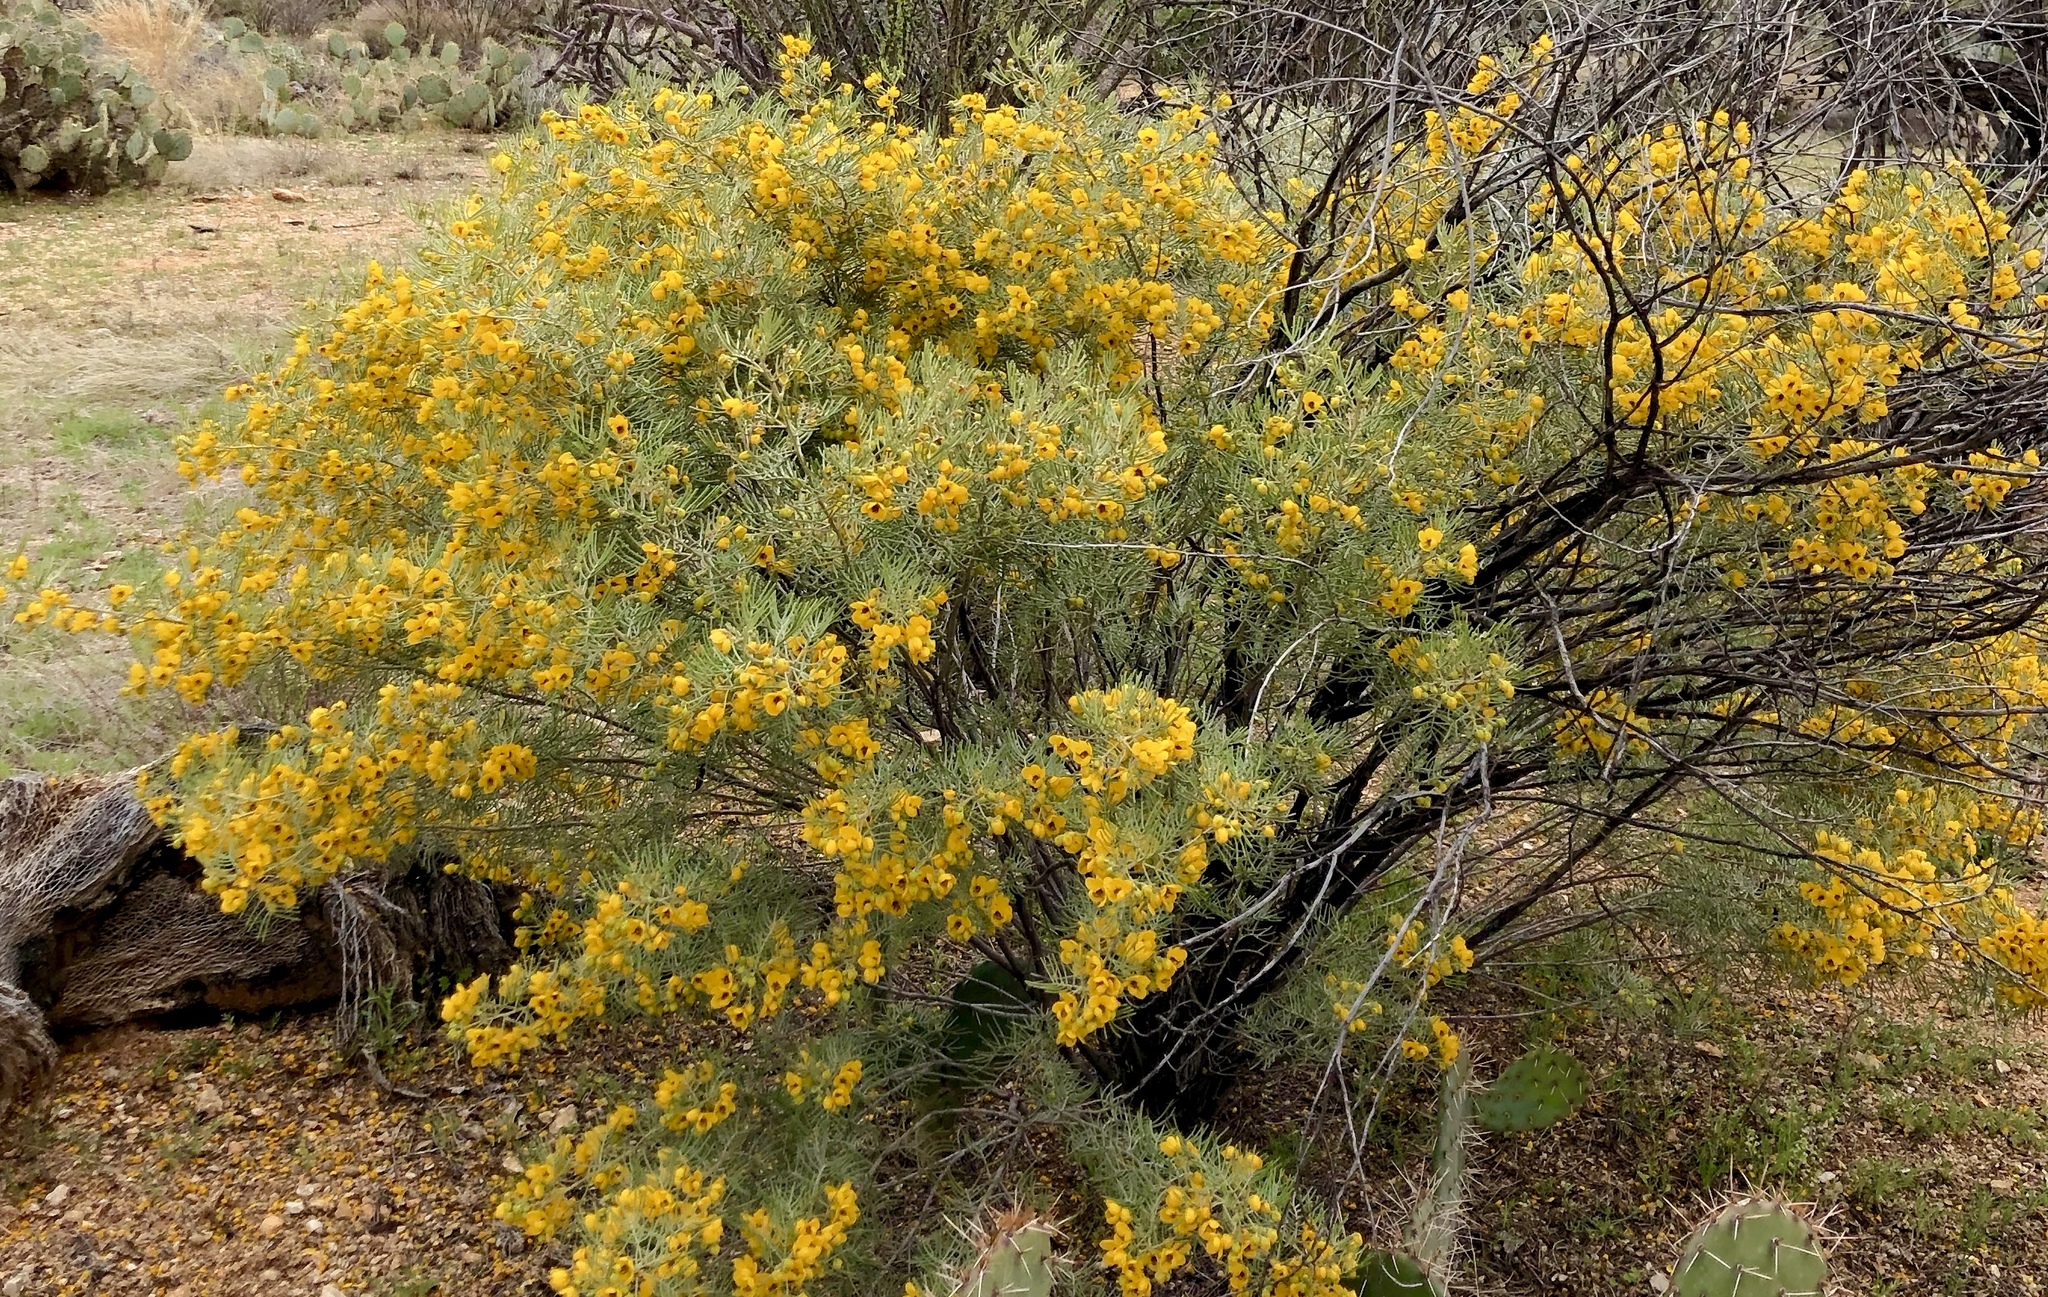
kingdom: Plantae
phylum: Tracheophyta
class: Magnoliopsida
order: Fabales
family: Fabaceae
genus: Senna
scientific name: Senna artemisioides
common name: Burnt-leaved acacia
